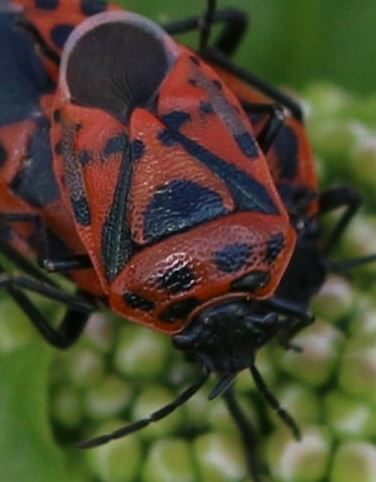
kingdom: Animalia
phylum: Arthropoda
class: Insecta
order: Hemiptera
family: Pentatomidae
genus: Eurydema
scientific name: Eurydema ornata
